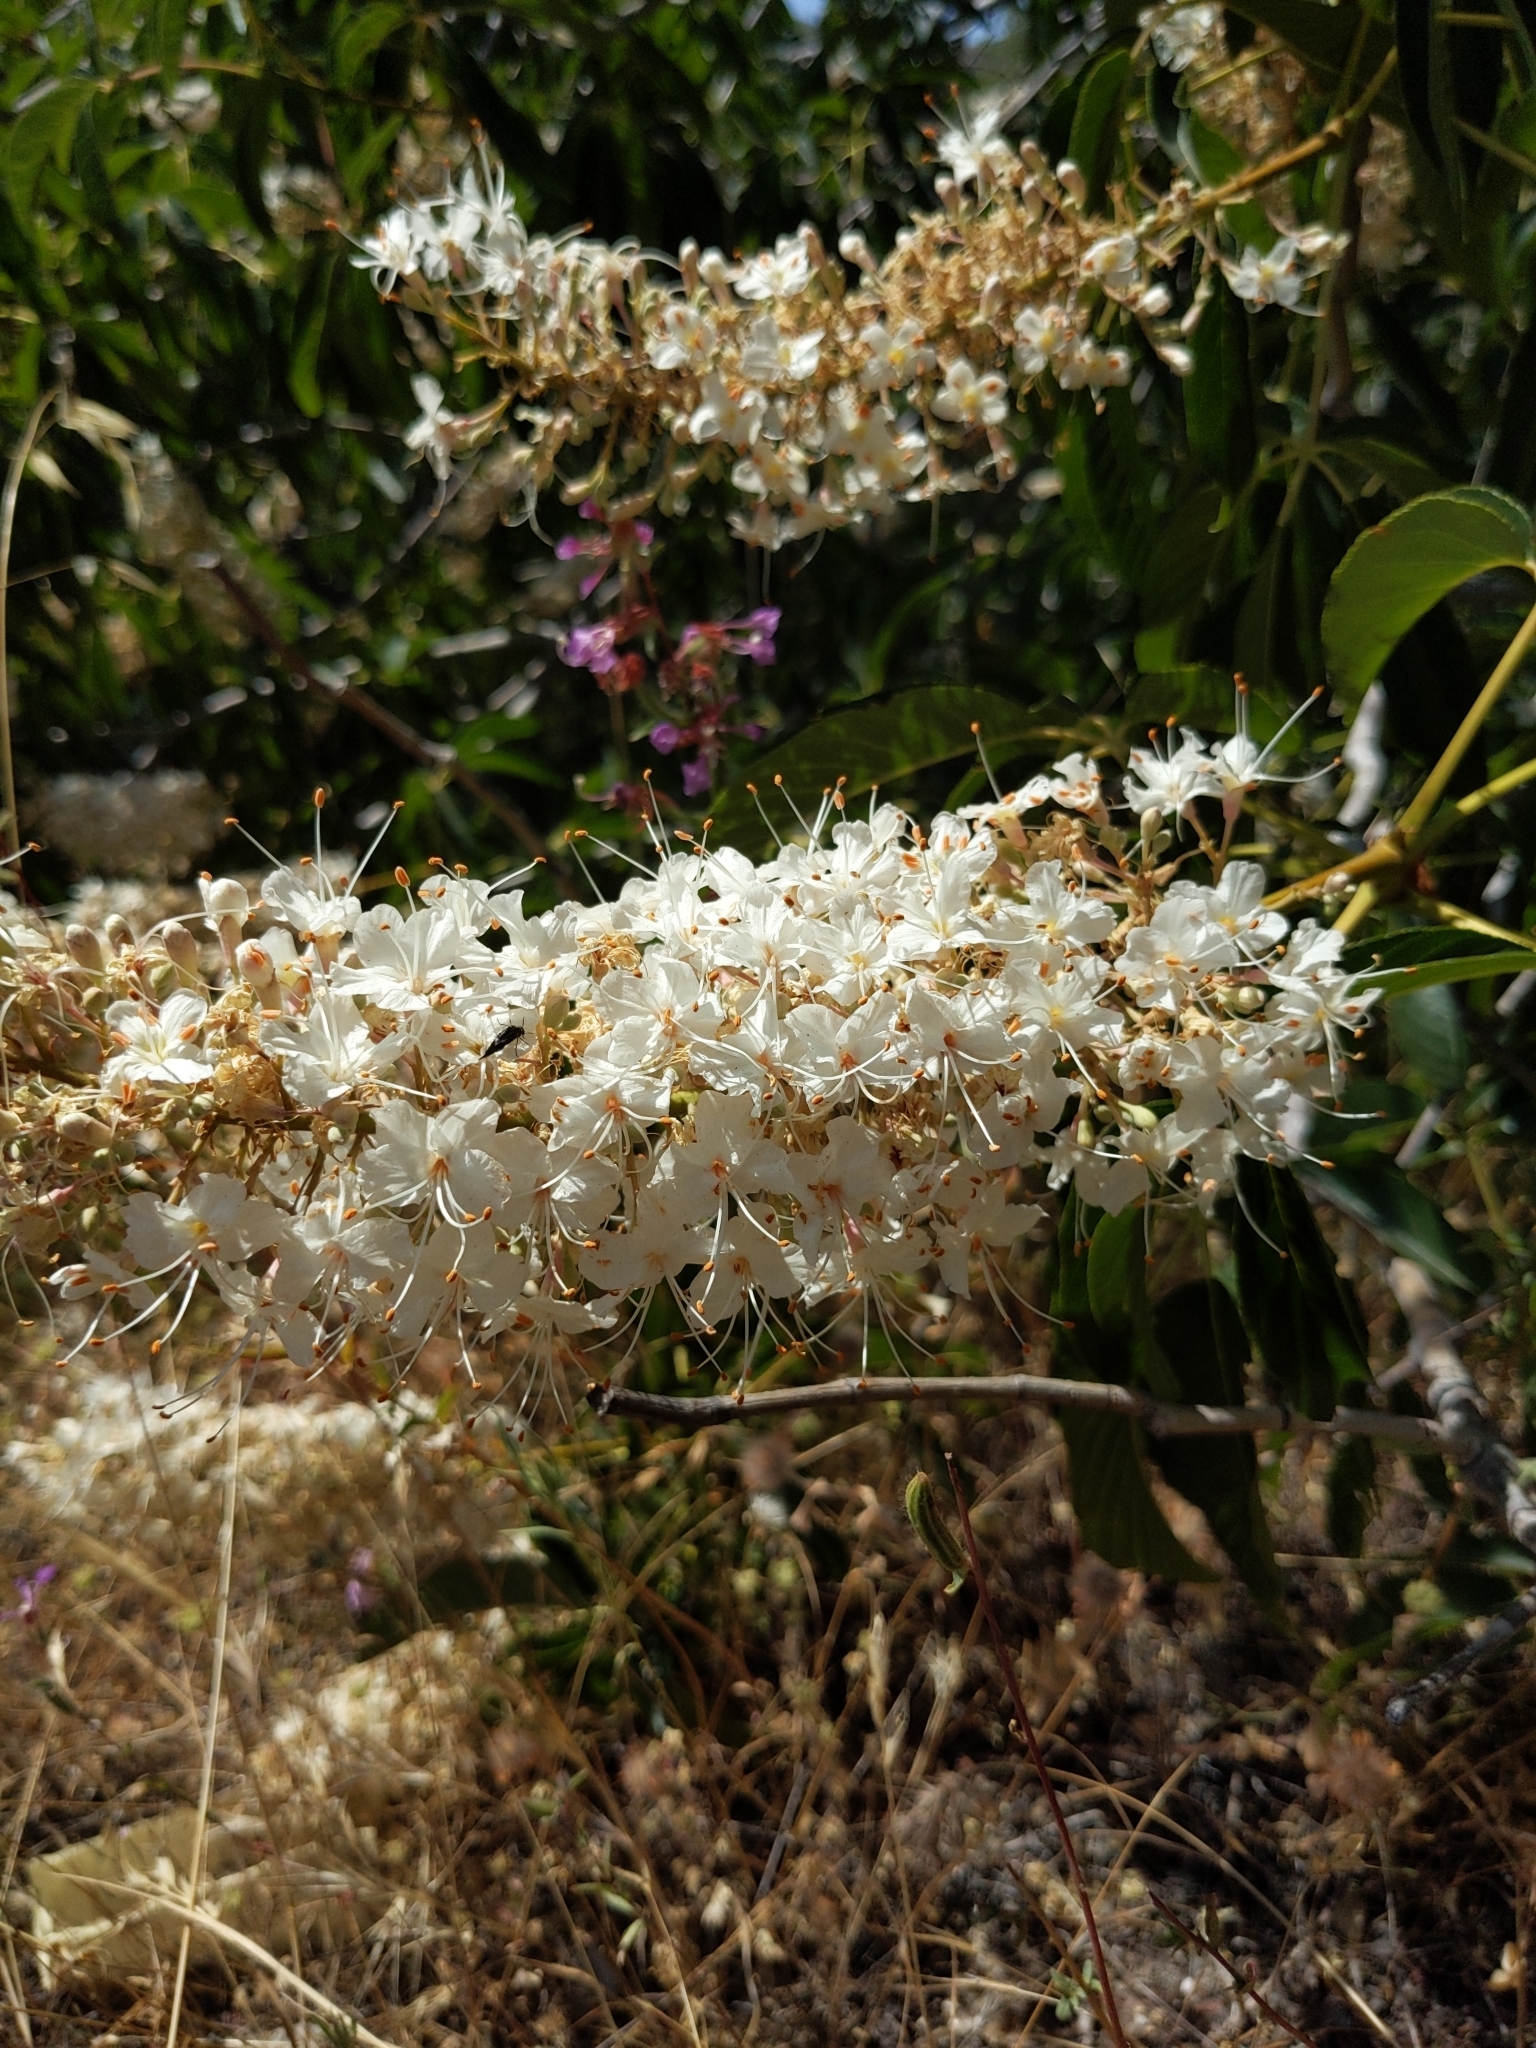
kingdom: Plantae
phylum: Tracheophyta
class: Magnoliopsida
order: Sapindales
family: Sapindaceae
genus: Aesculus
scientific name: Aesculus californica
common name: California buckeye
